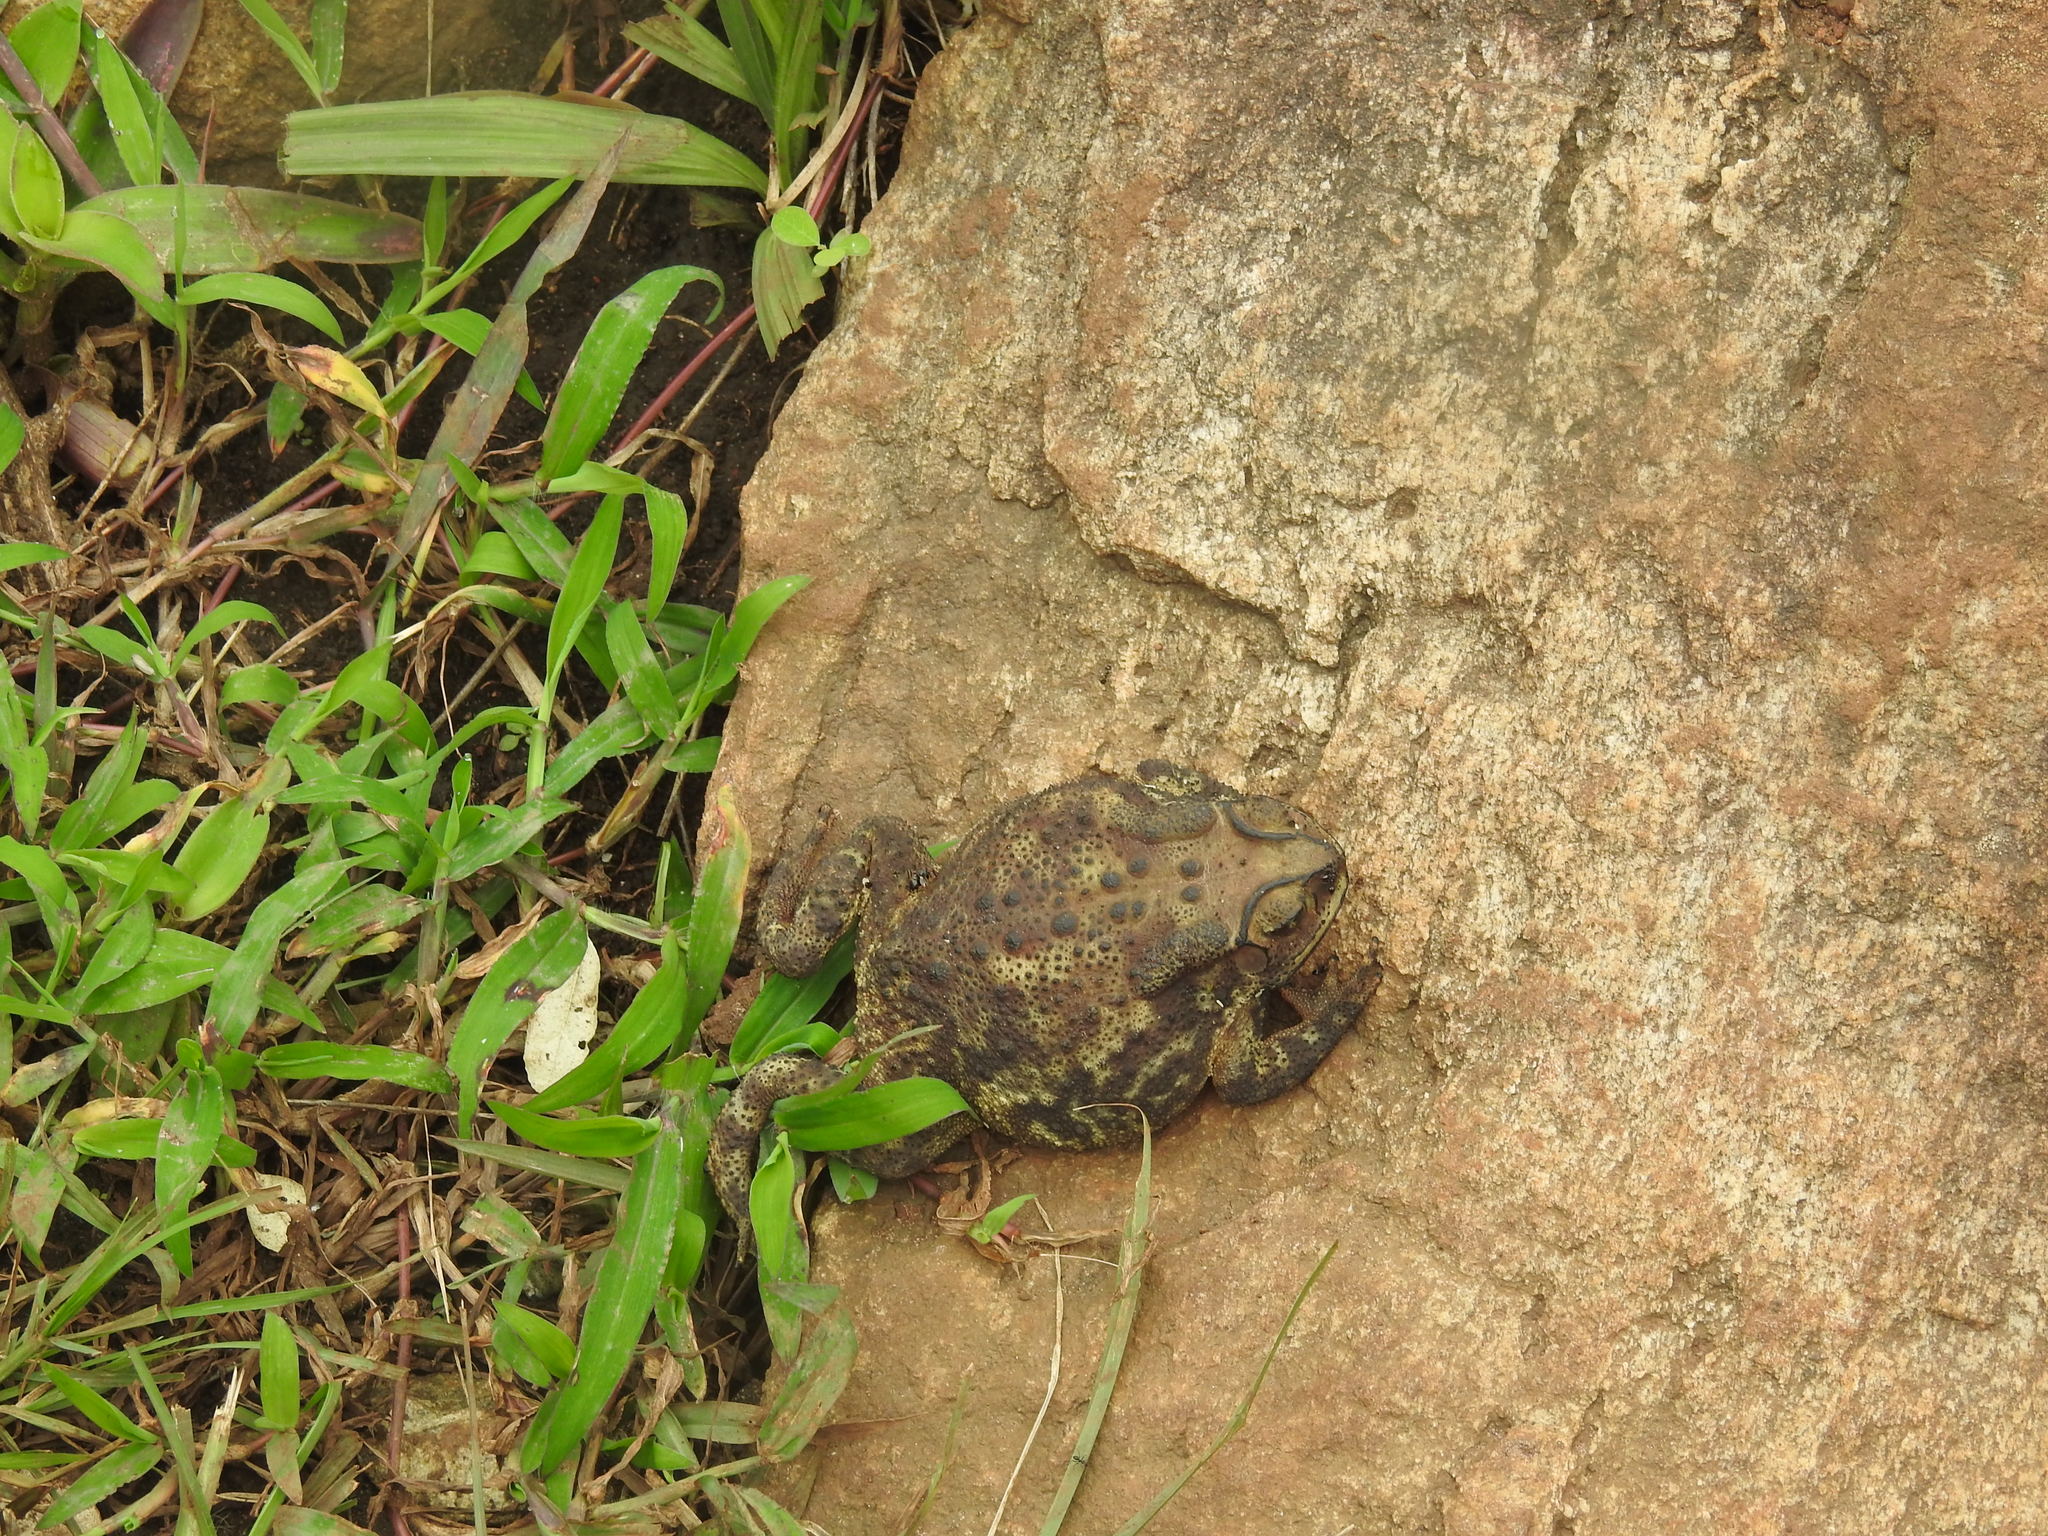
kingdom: Animalia
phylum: Chordata
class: Amphibia
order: Anura
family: Bufonidae
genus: Duttaphrynus
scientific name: Duttaphrynus melanostictus
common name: Common sunda toad
